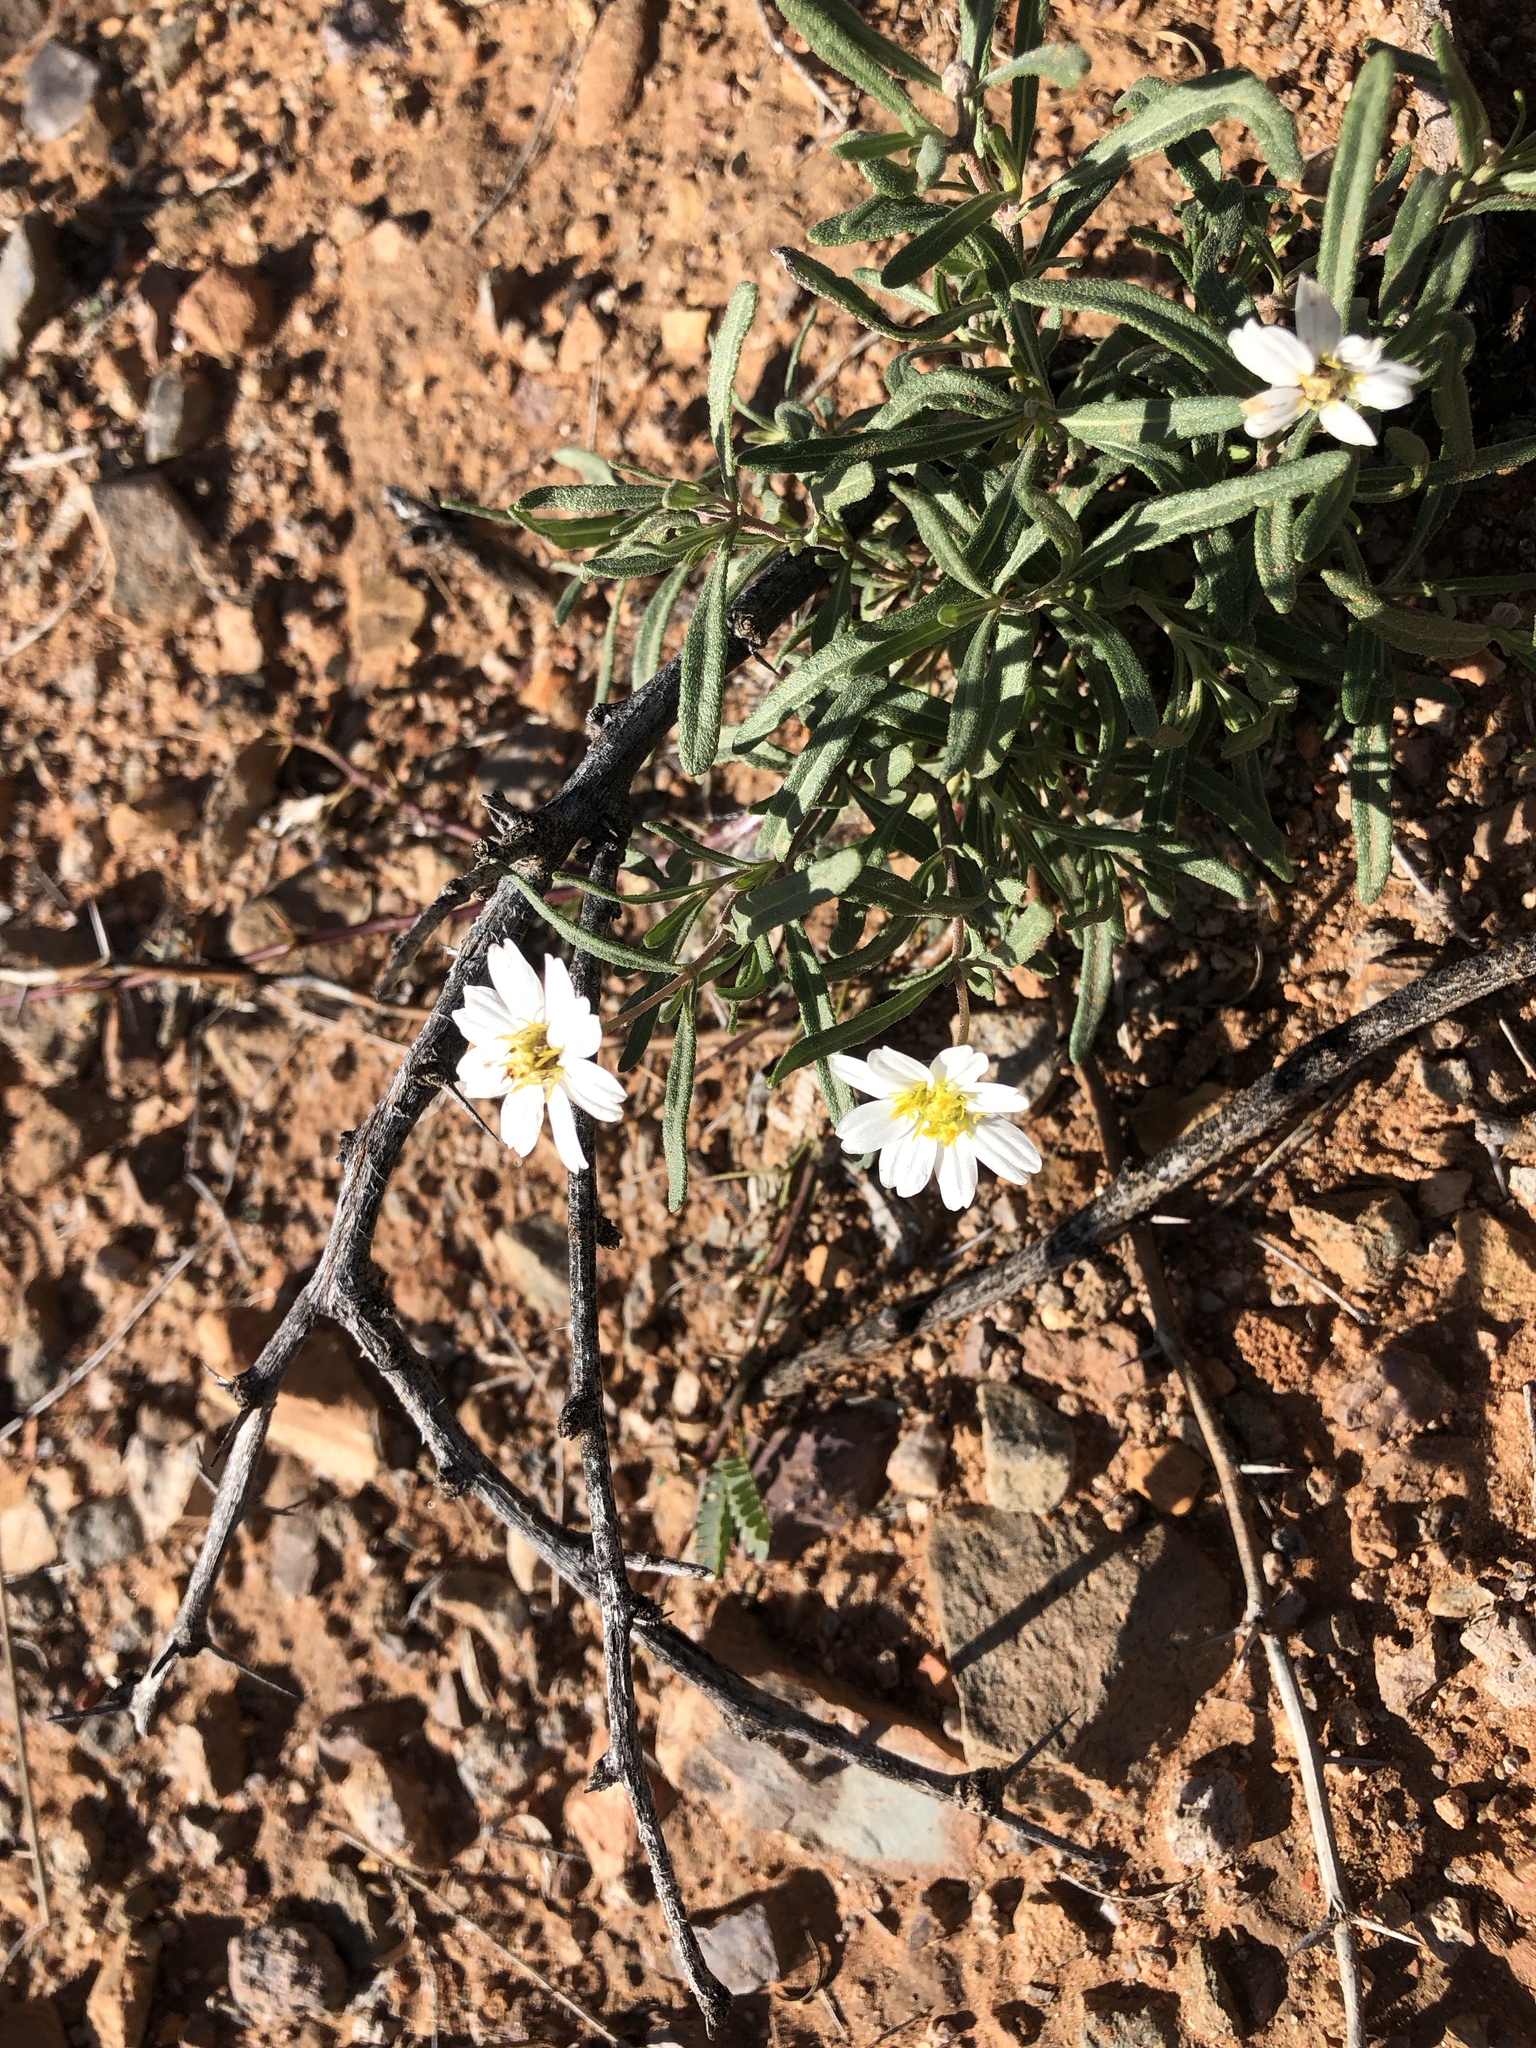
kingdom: Plantae
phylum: Tracheophyta
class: Magnoliopsida
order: Asterales
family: Asteraceae
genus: Melampodium
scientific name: Melampodium leucanthum
